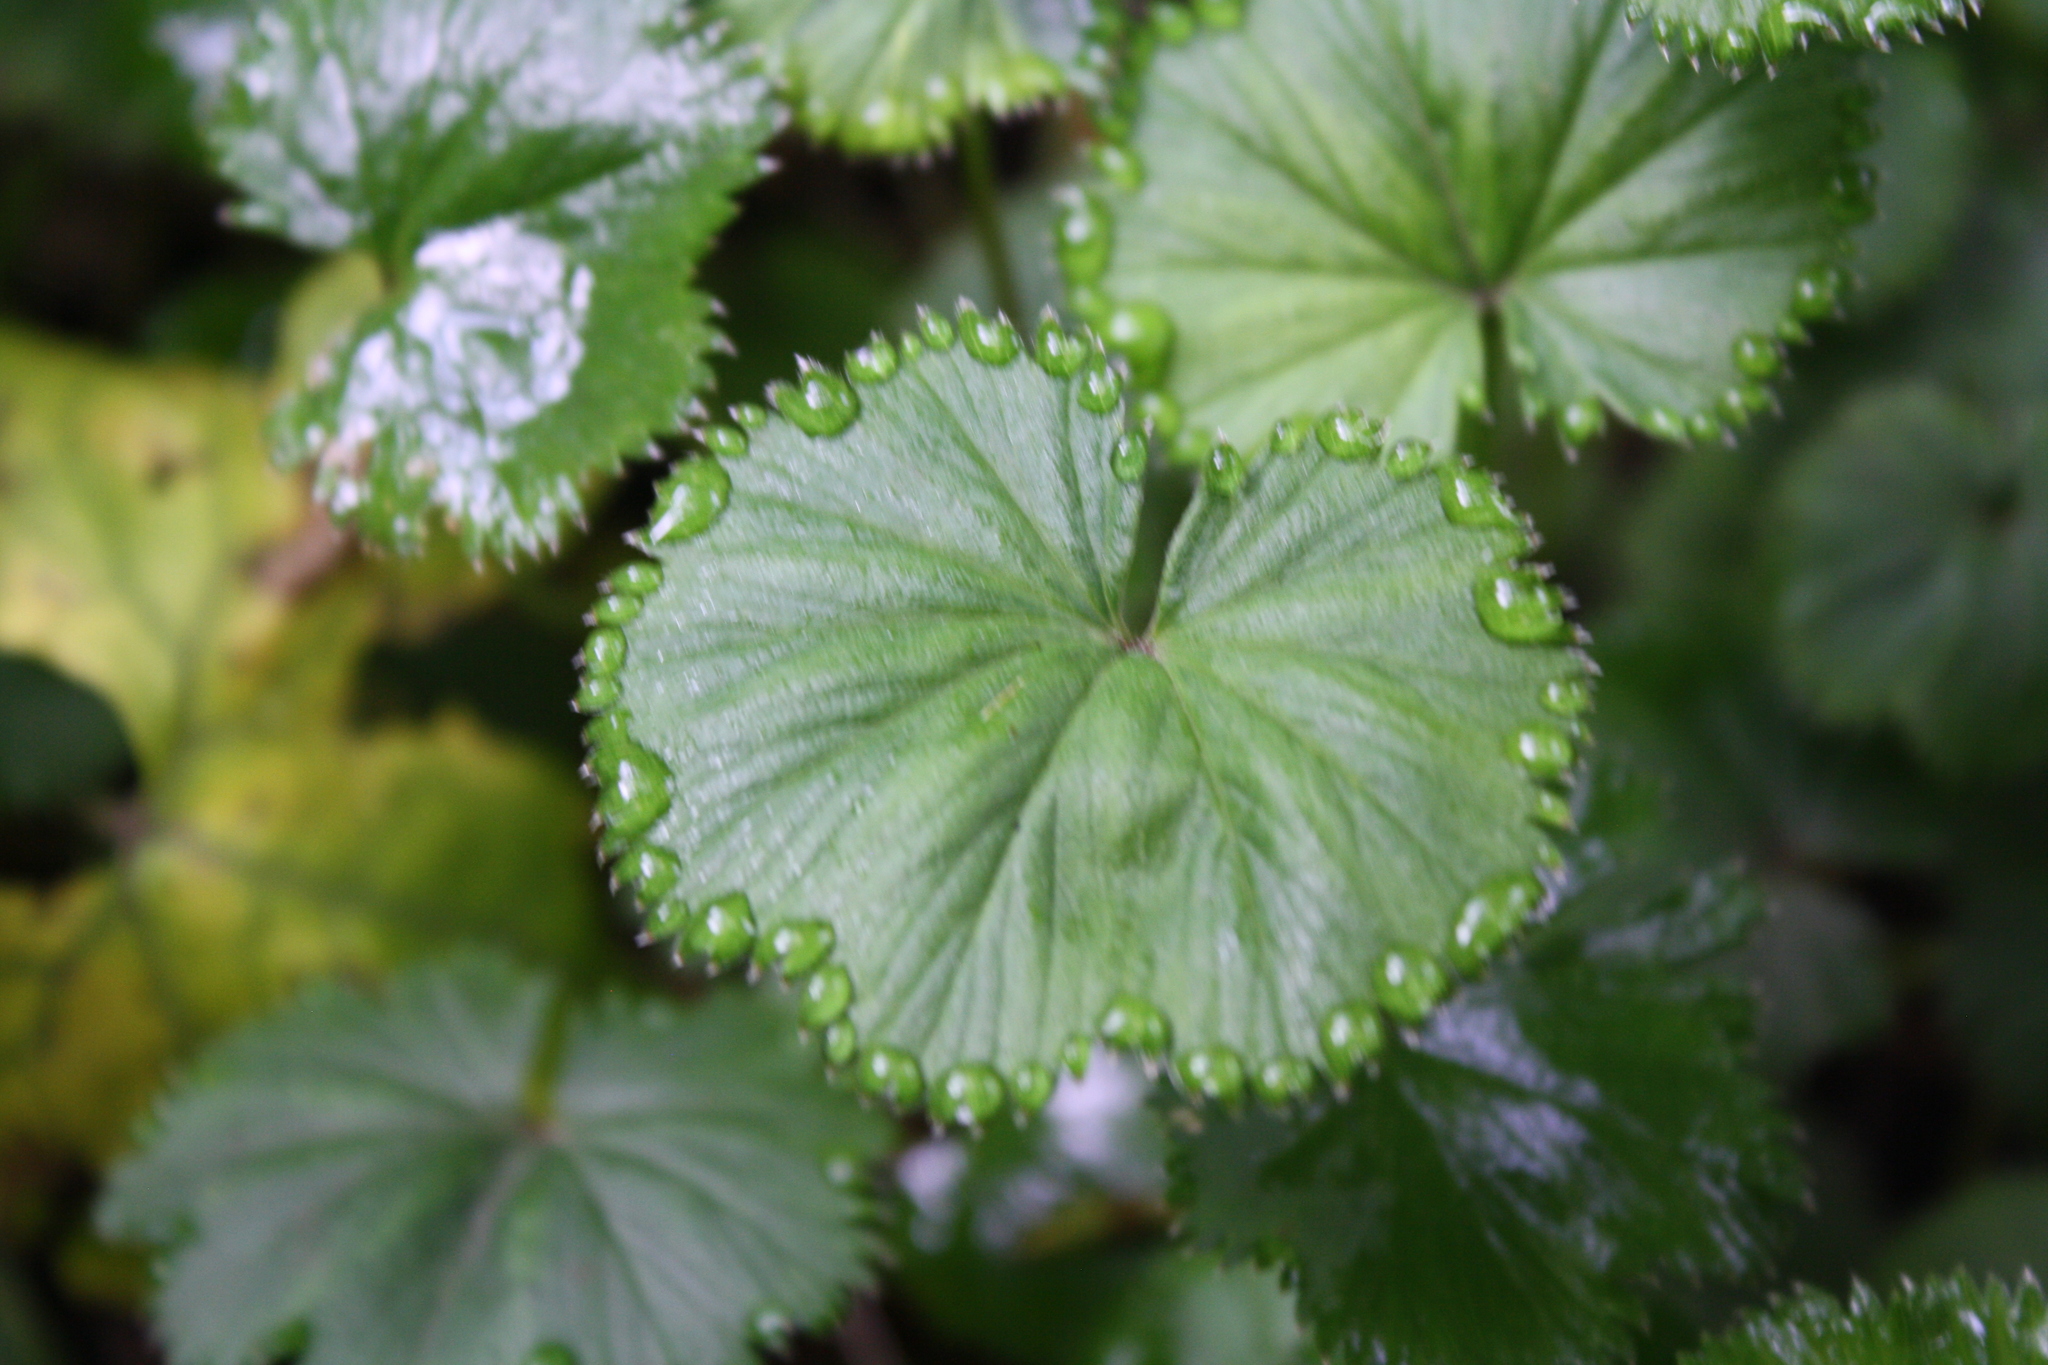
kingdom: Plantae
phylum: Tracheophyta
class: Magnoliopsida
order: Rosales
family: Rosaceae
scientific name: Rosaceae
